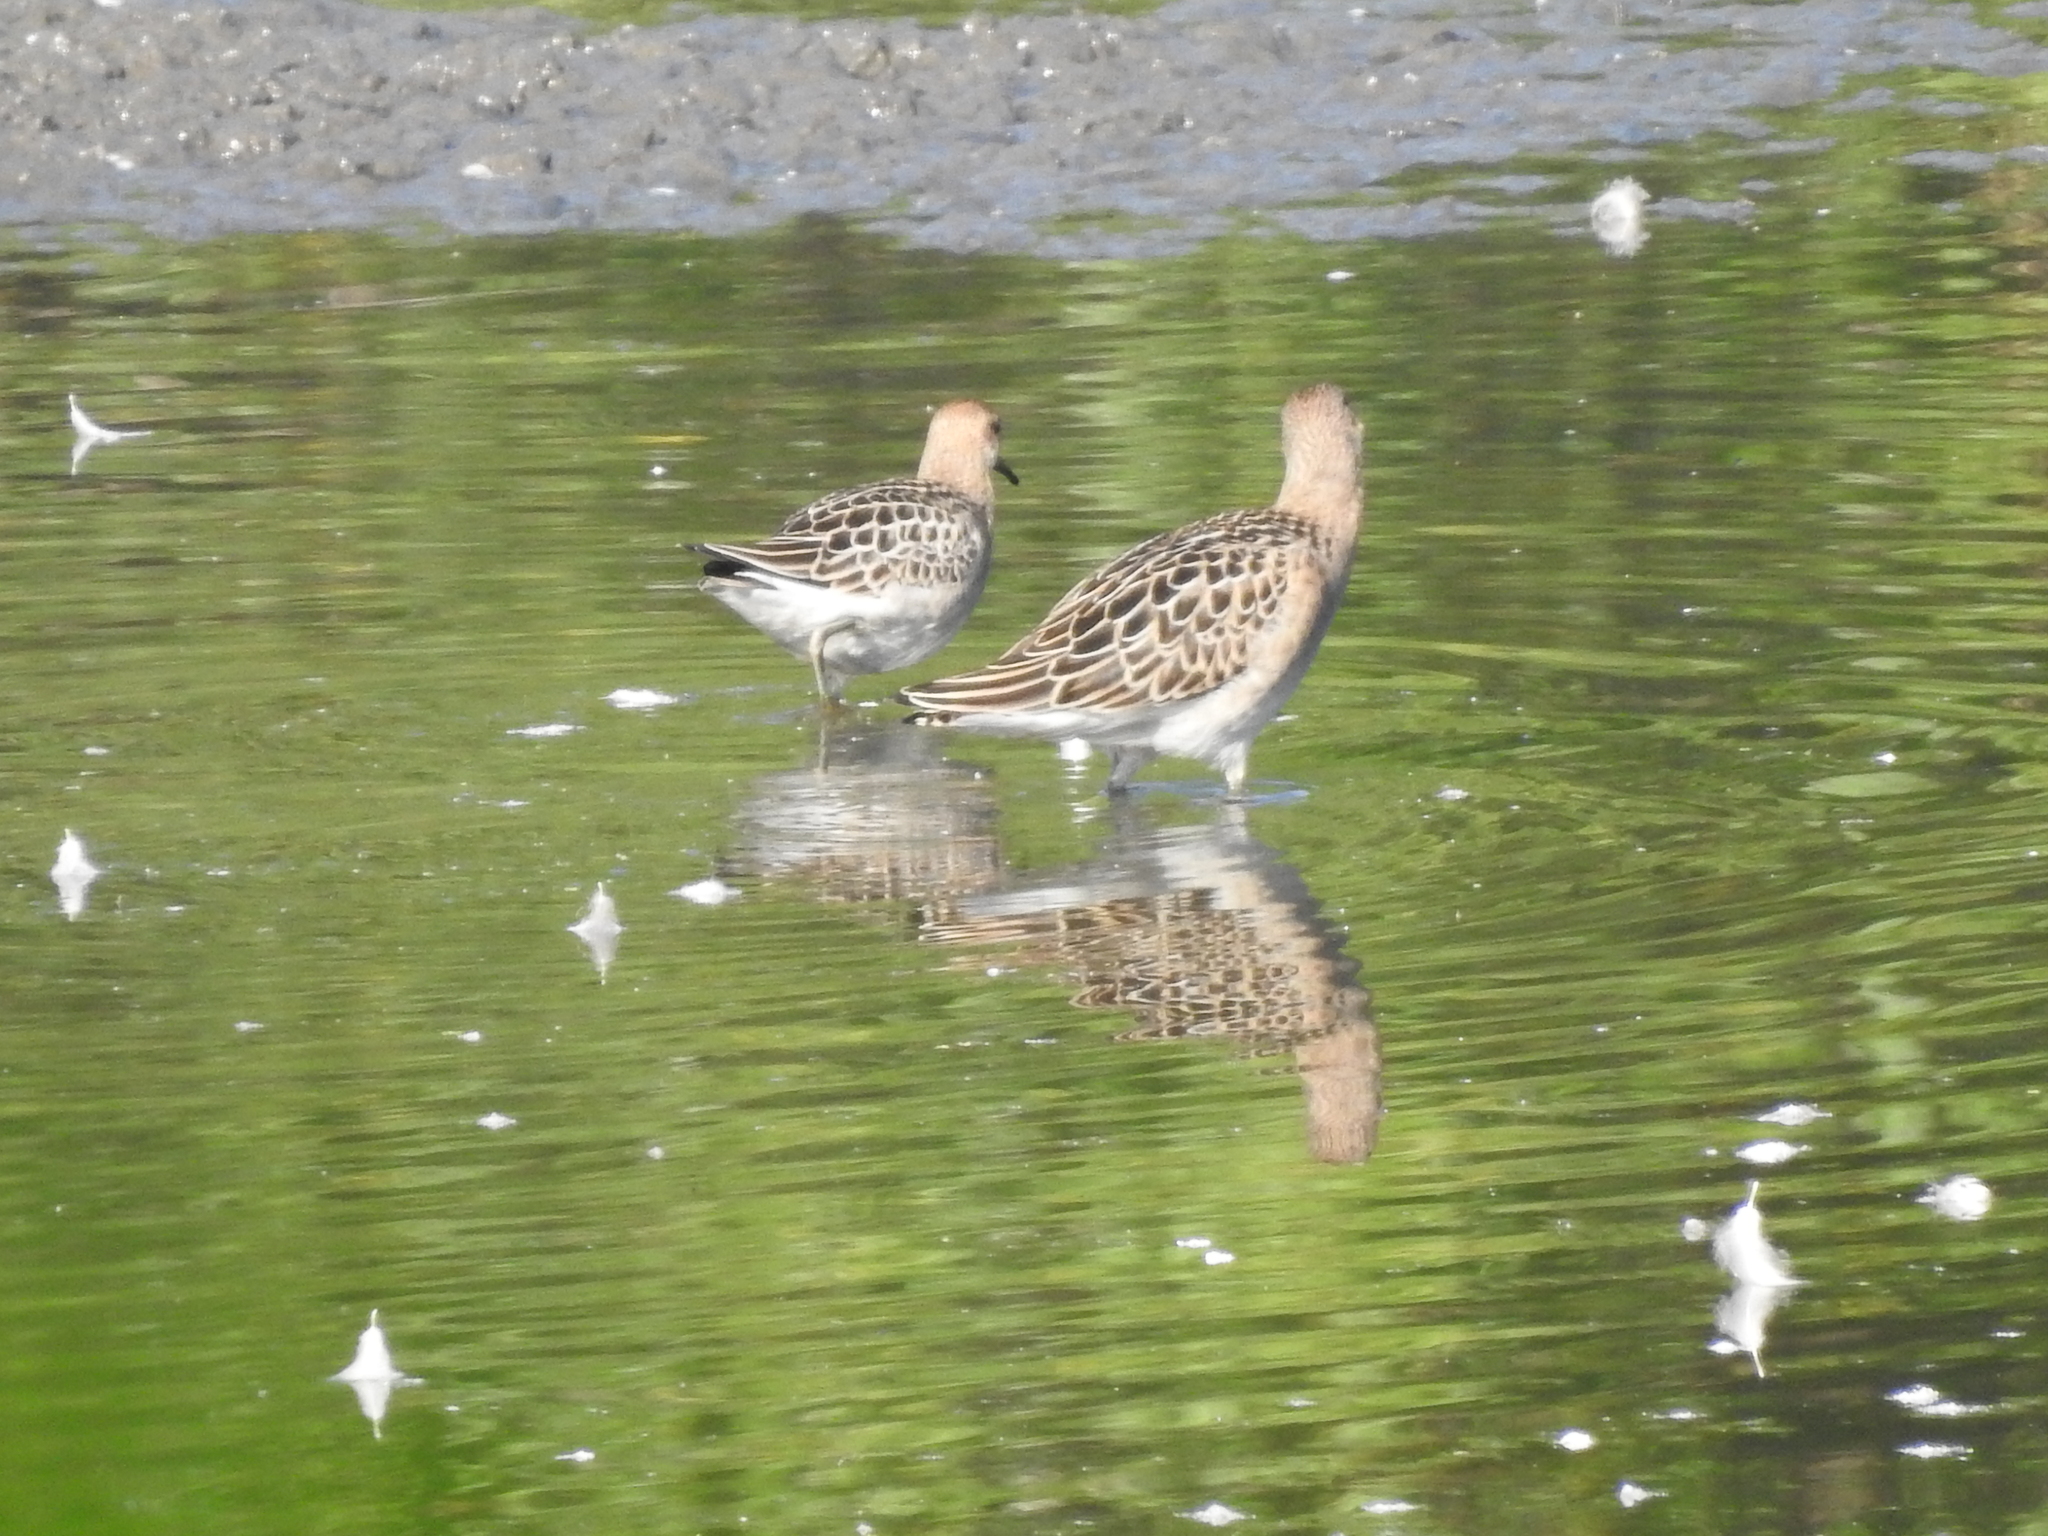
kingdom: Animalia
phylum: Chordata
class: Aves
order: Charadriiformes
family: Scolopacidae
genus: Calidris
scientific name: Calidris pugnax
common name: Ruff
